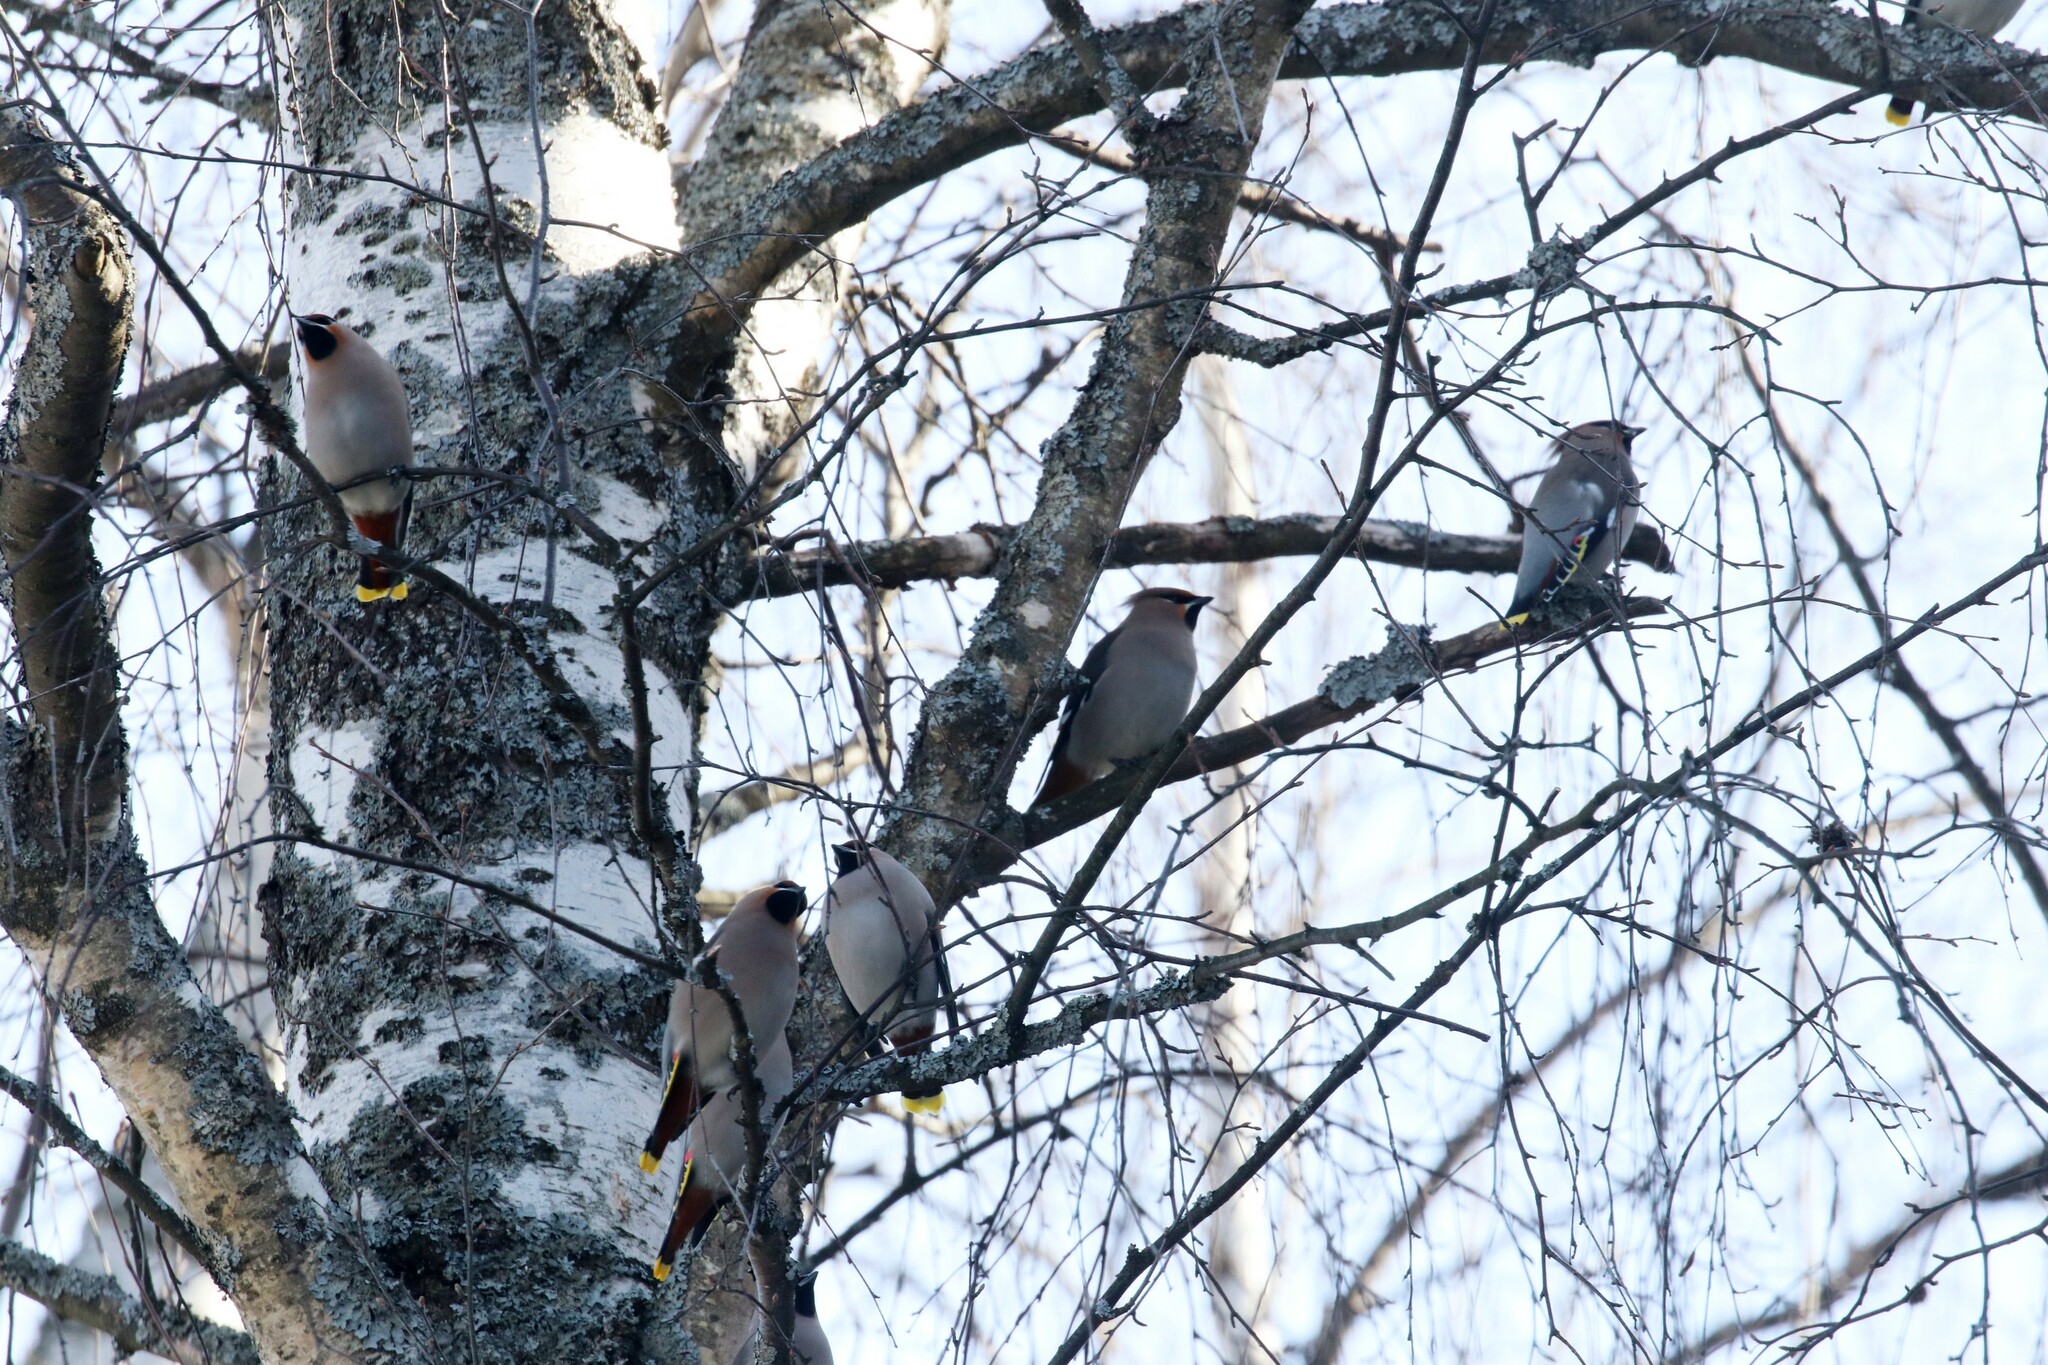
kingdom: Animalia
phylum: Chordata
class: Aves
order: Passeriformes
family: Bombycillidae
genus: Bombycilla
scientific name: Bombycilla garrulus
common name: Bohemian waxwing
